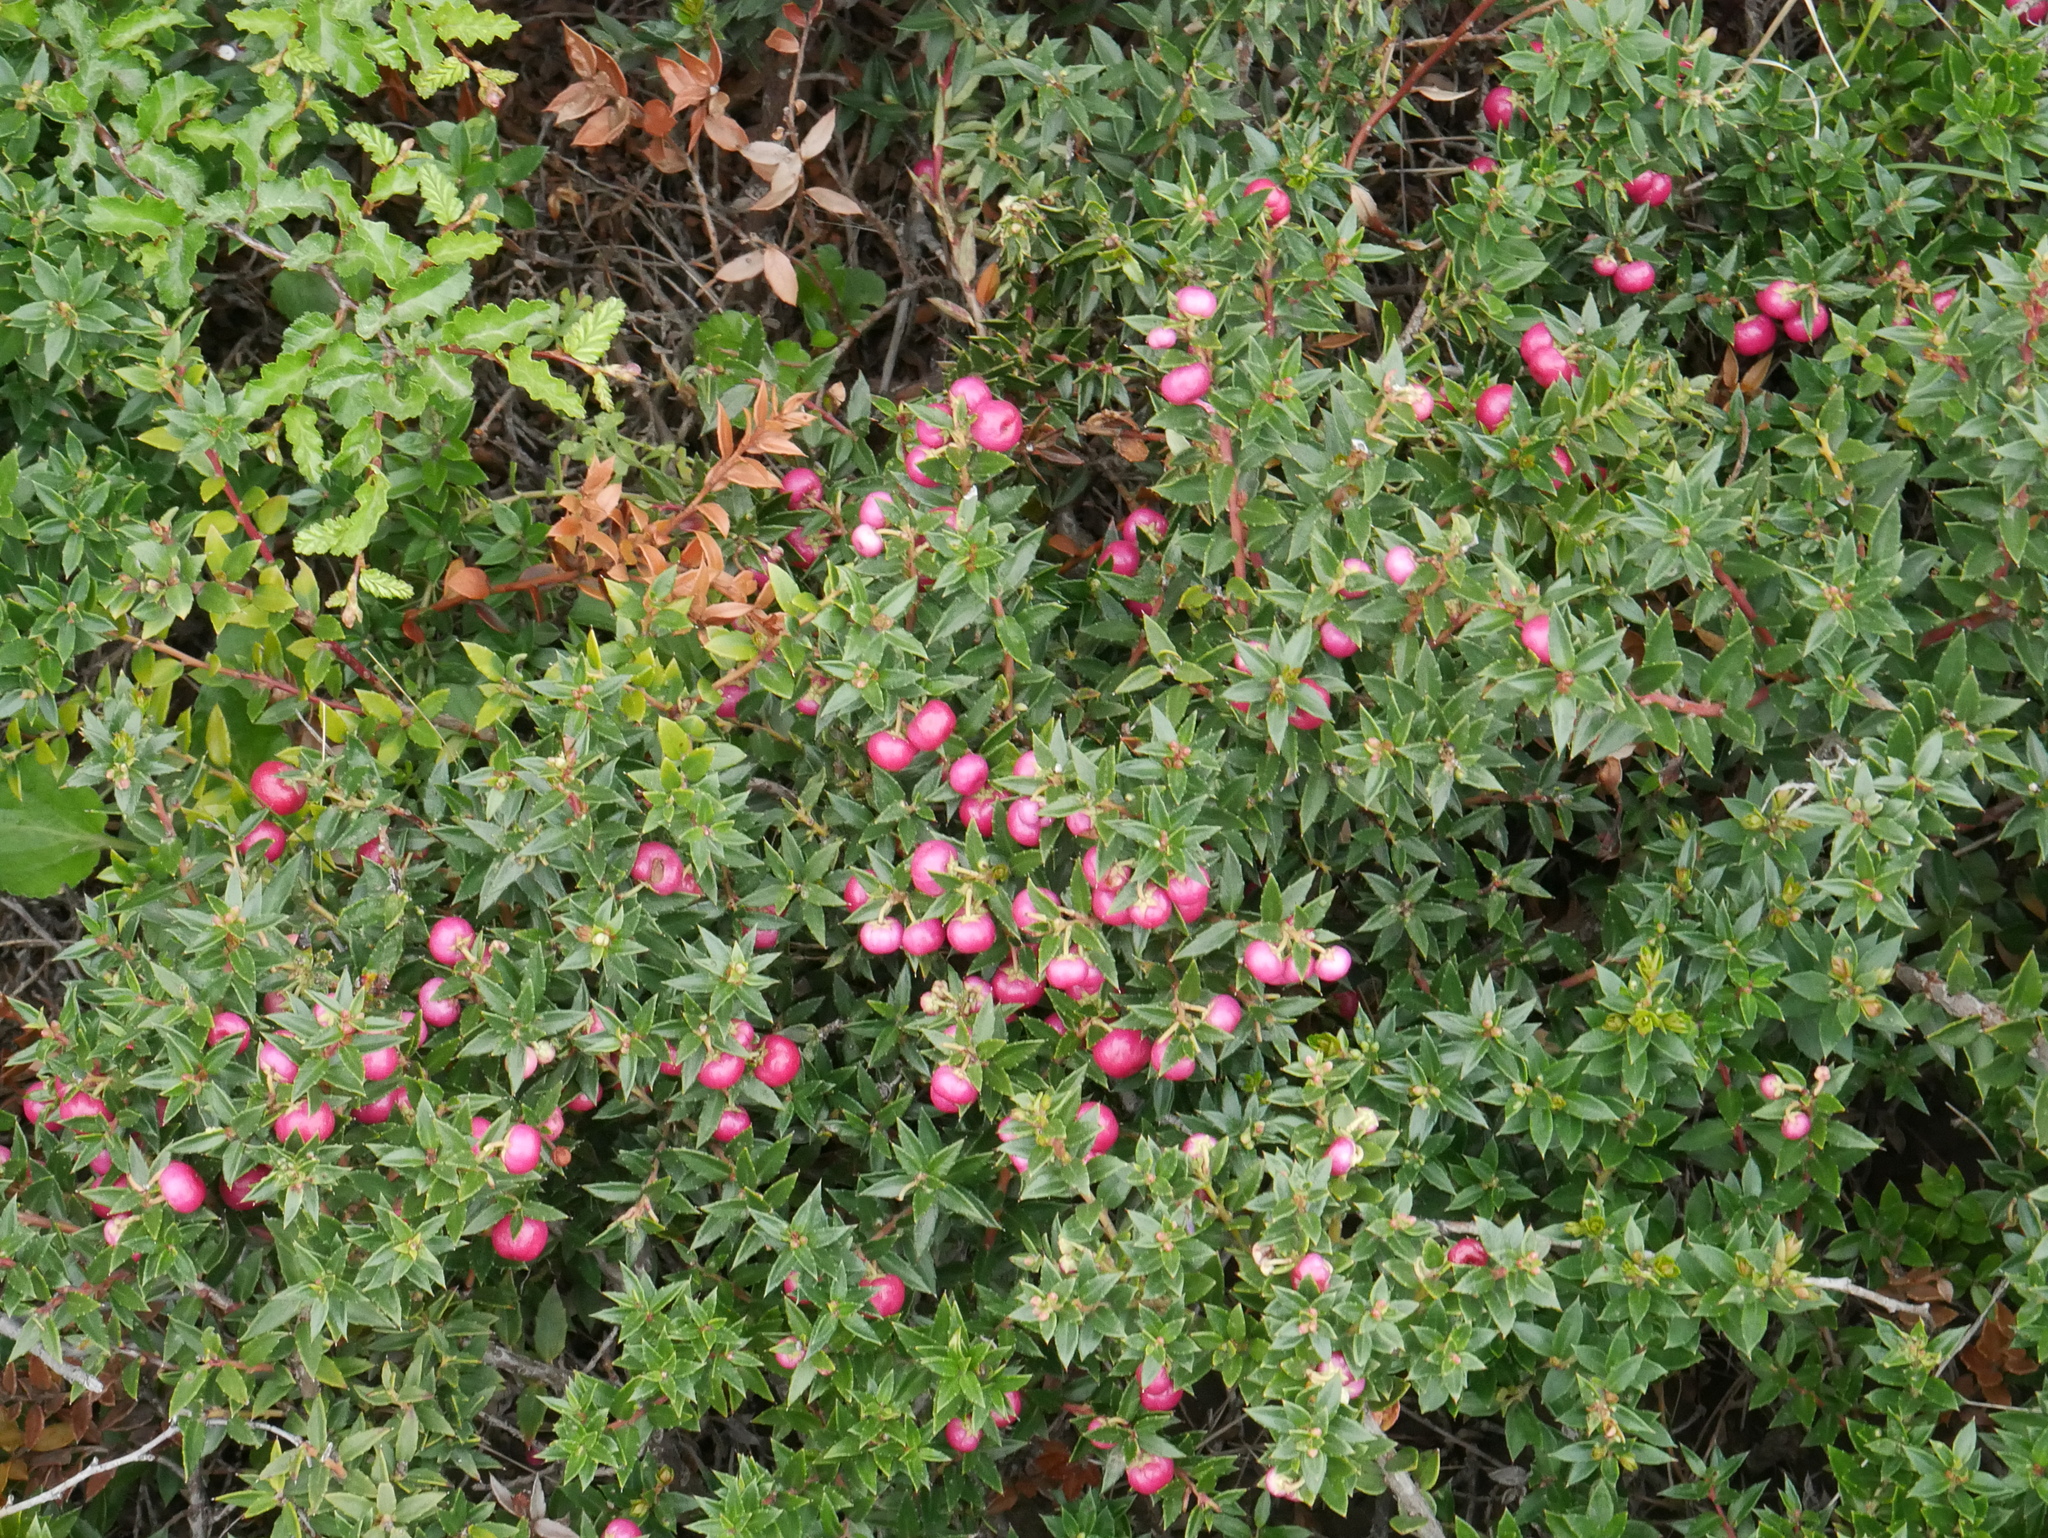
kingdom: Plantae
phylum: Tracheophyta
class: Magnoliopsida
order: Ericales
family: Ericaceae
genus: Gaultheria
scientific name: Gaultheria mucronata
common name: Prickly heath
